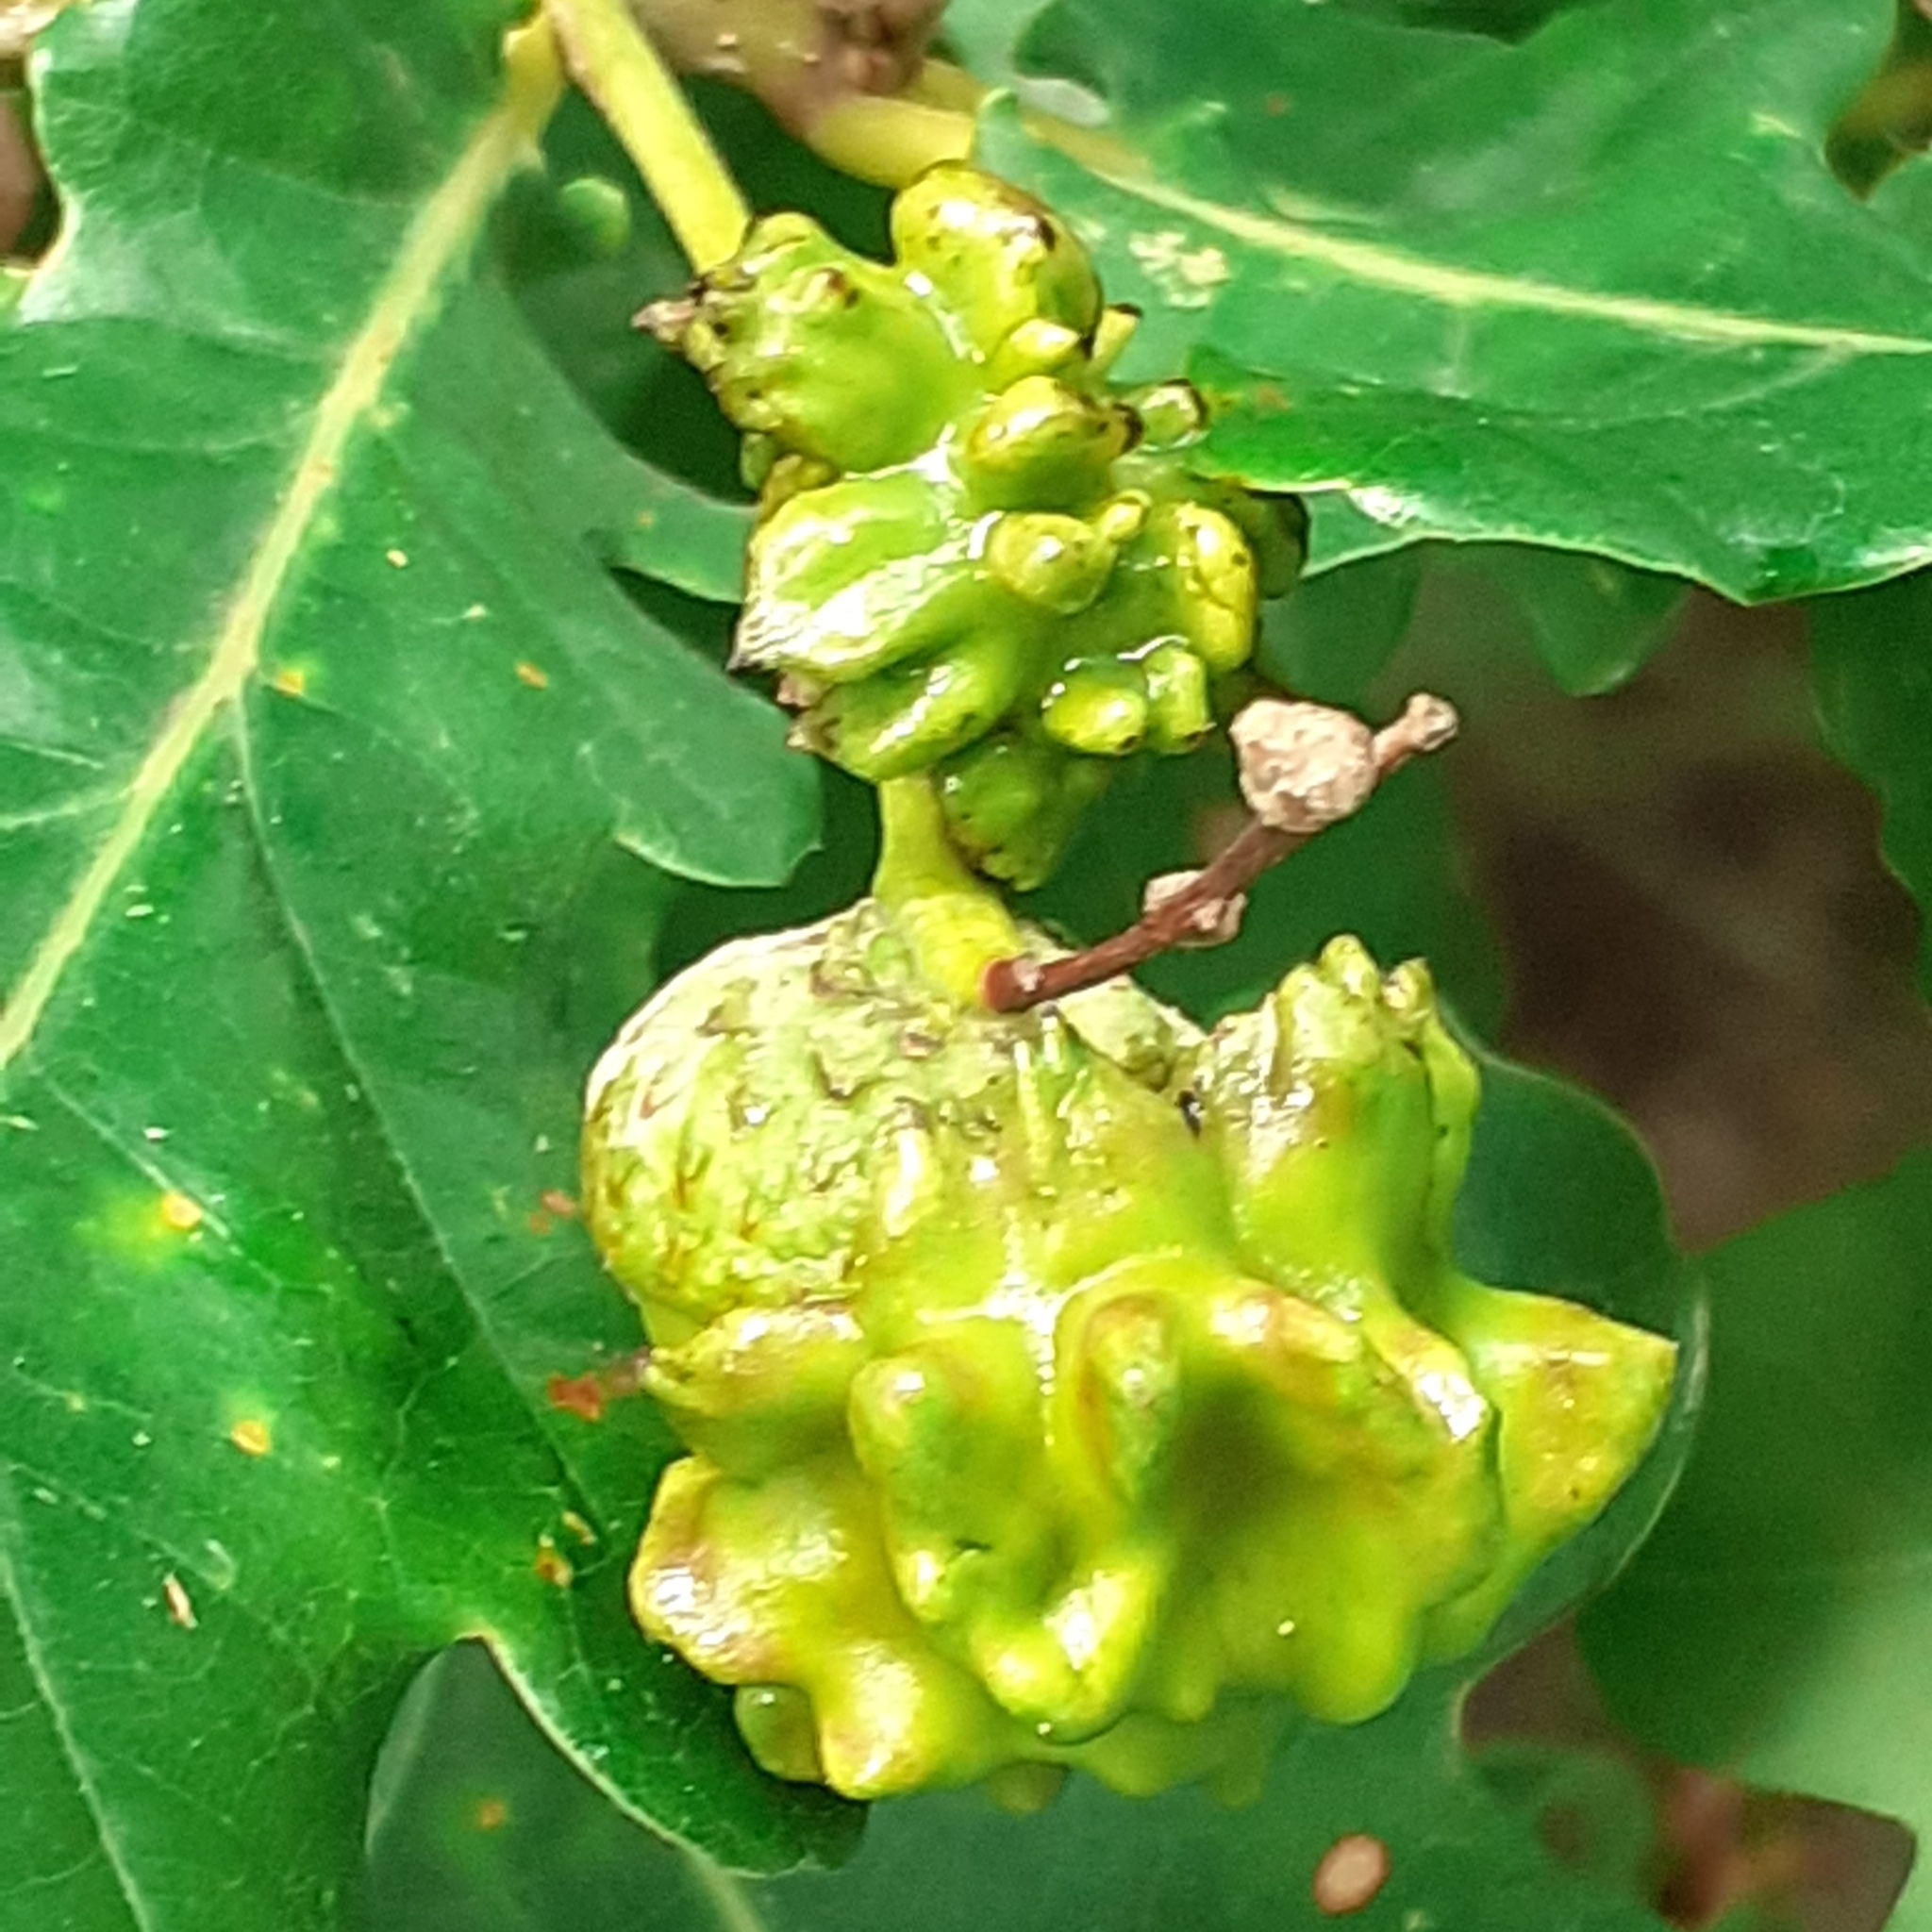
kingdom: Animalia
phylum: Arthropoda
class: Insecta
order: Hymenoptera
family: Cynipidae
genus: Andricus
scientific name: Andricus quercuscalicis
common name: Knopper gall
